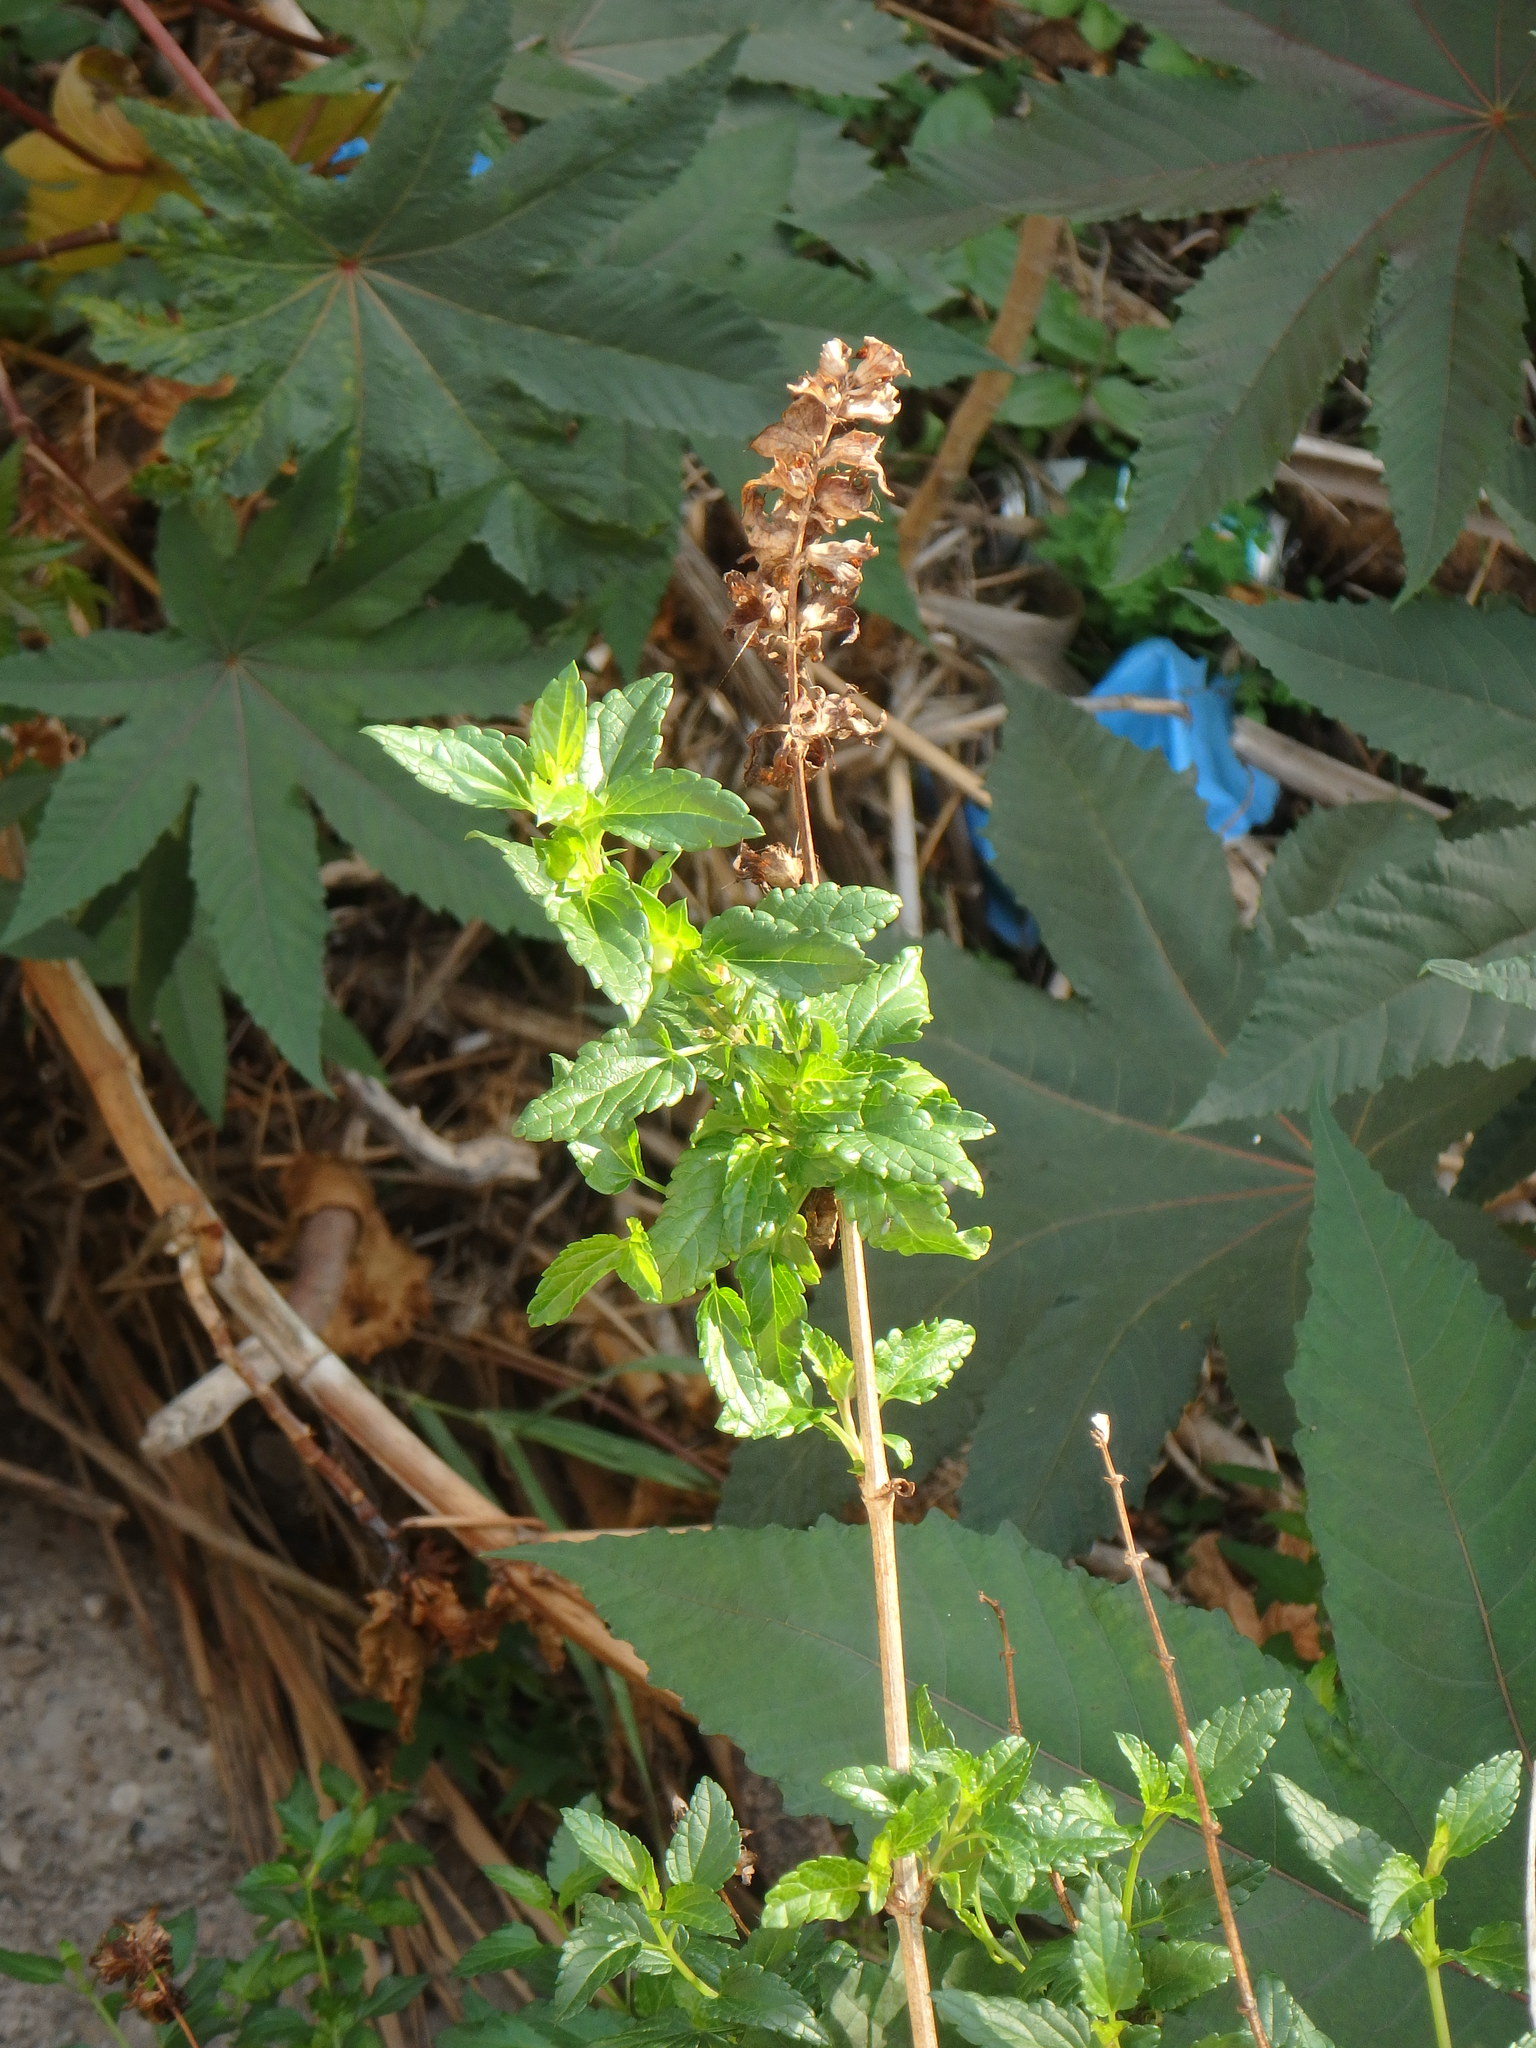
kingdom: Plantae
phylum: Tracheophyta
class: Magnoliopsida
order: Lamiales
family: Lamiaceae
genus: Prasium
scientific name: Prasium majus
